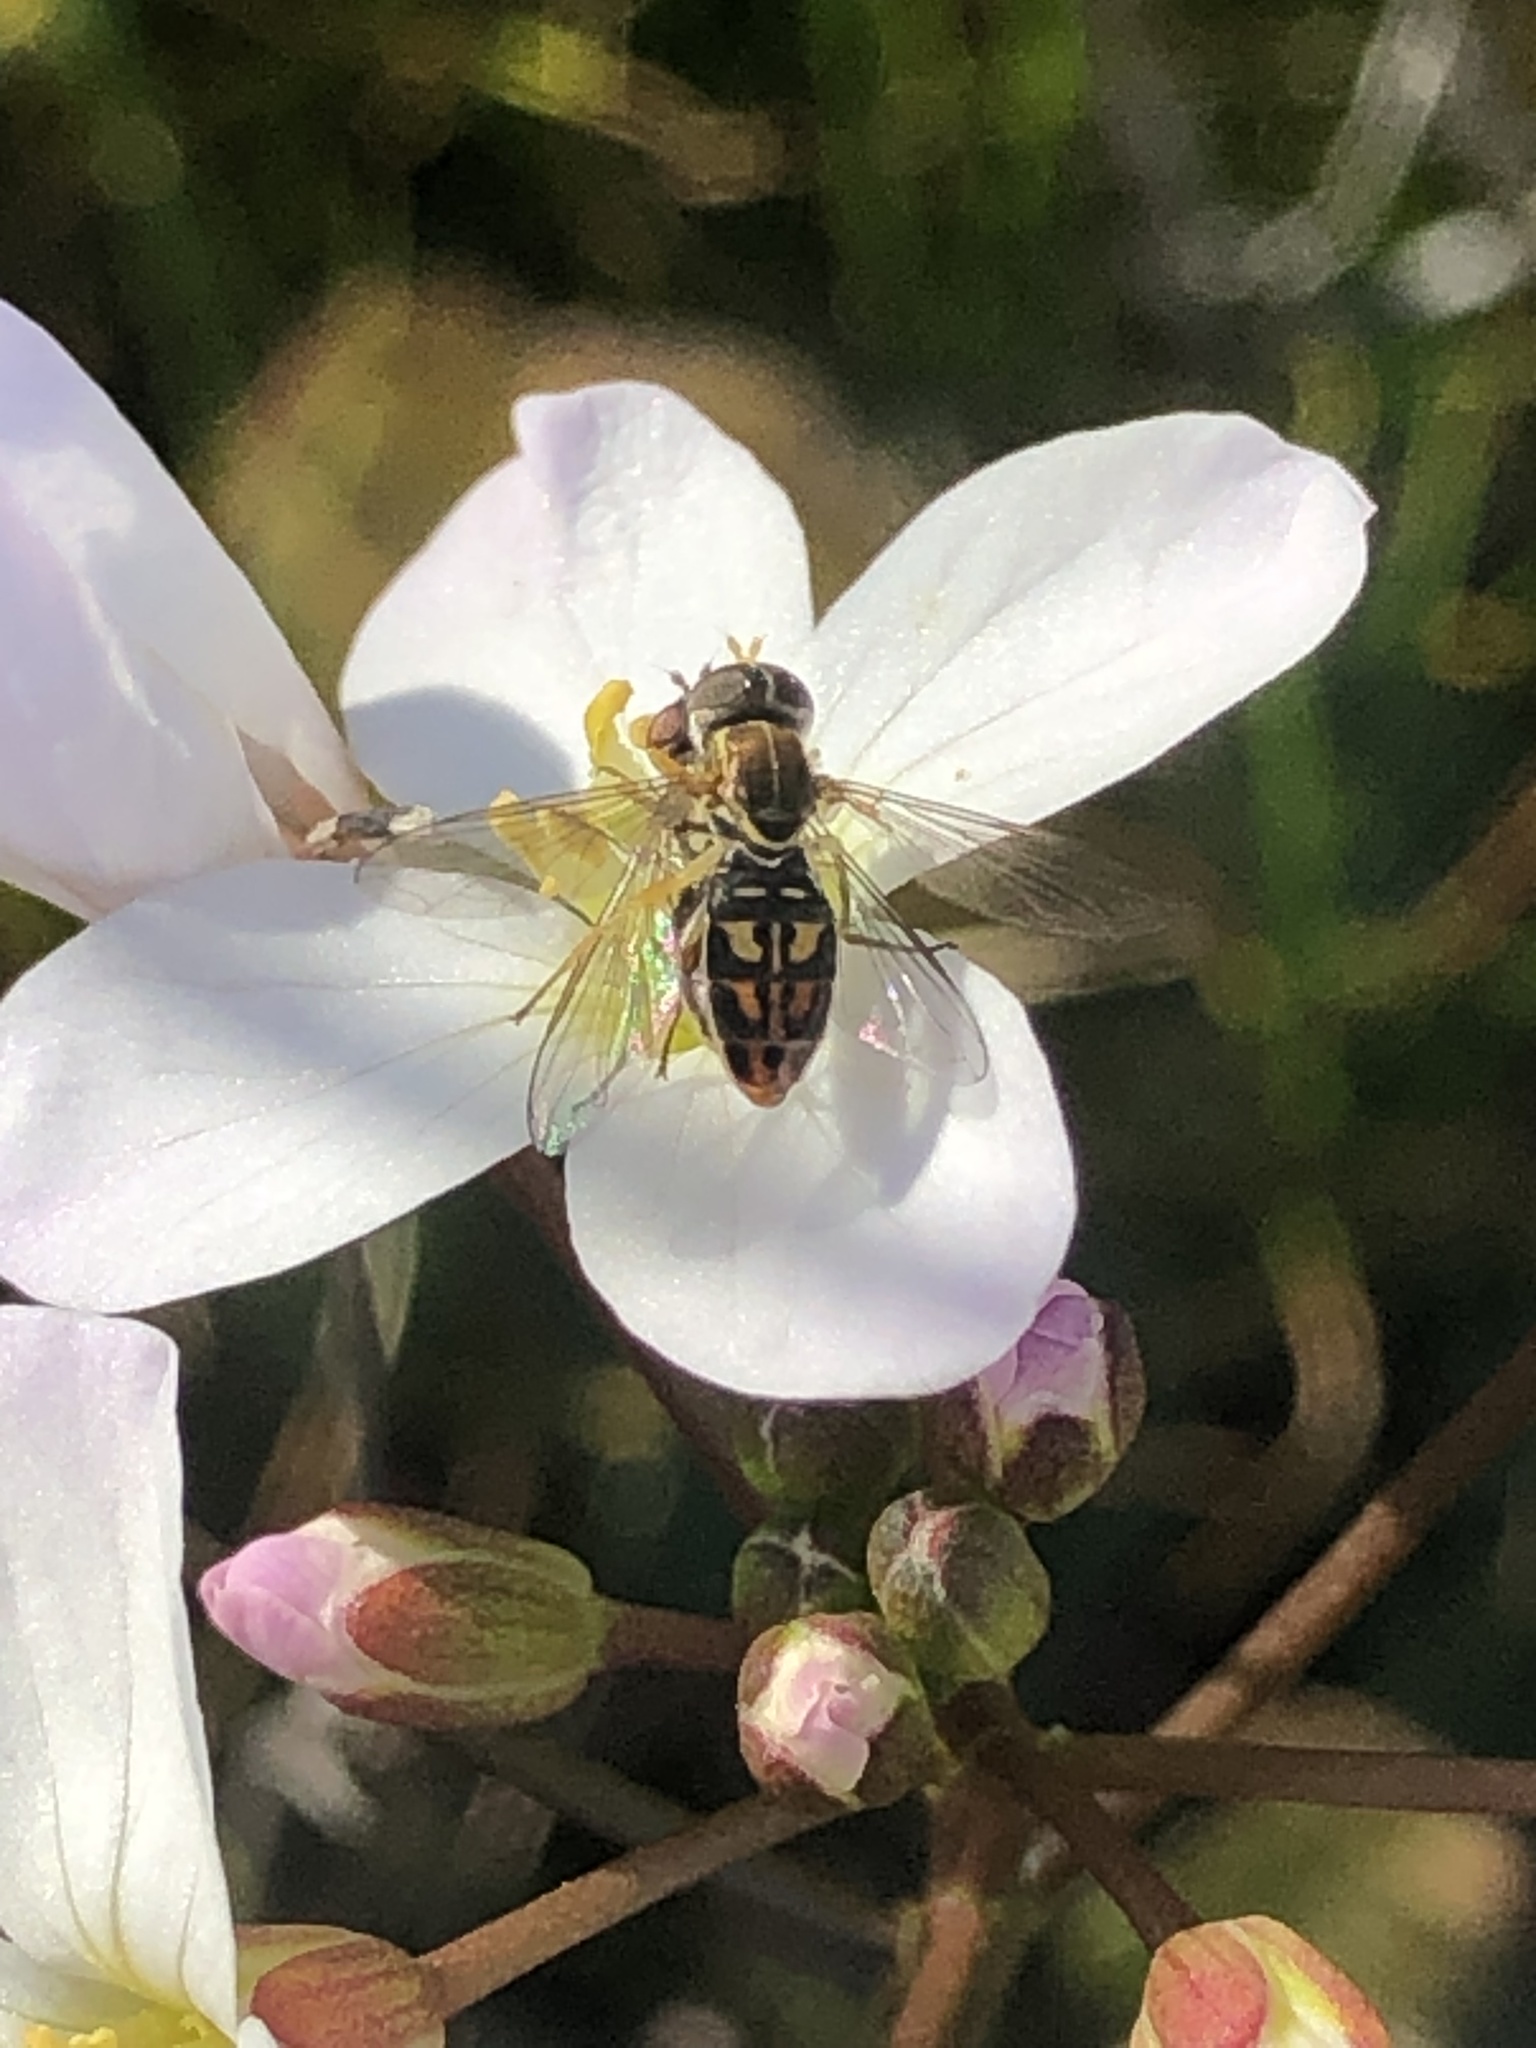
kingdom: Animalia
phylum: Arthropoda
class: Insecta
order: Diptera
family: Syrphidae
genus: Toxomerus
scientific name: Toxomerus marginatus
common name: Syrphid fly
